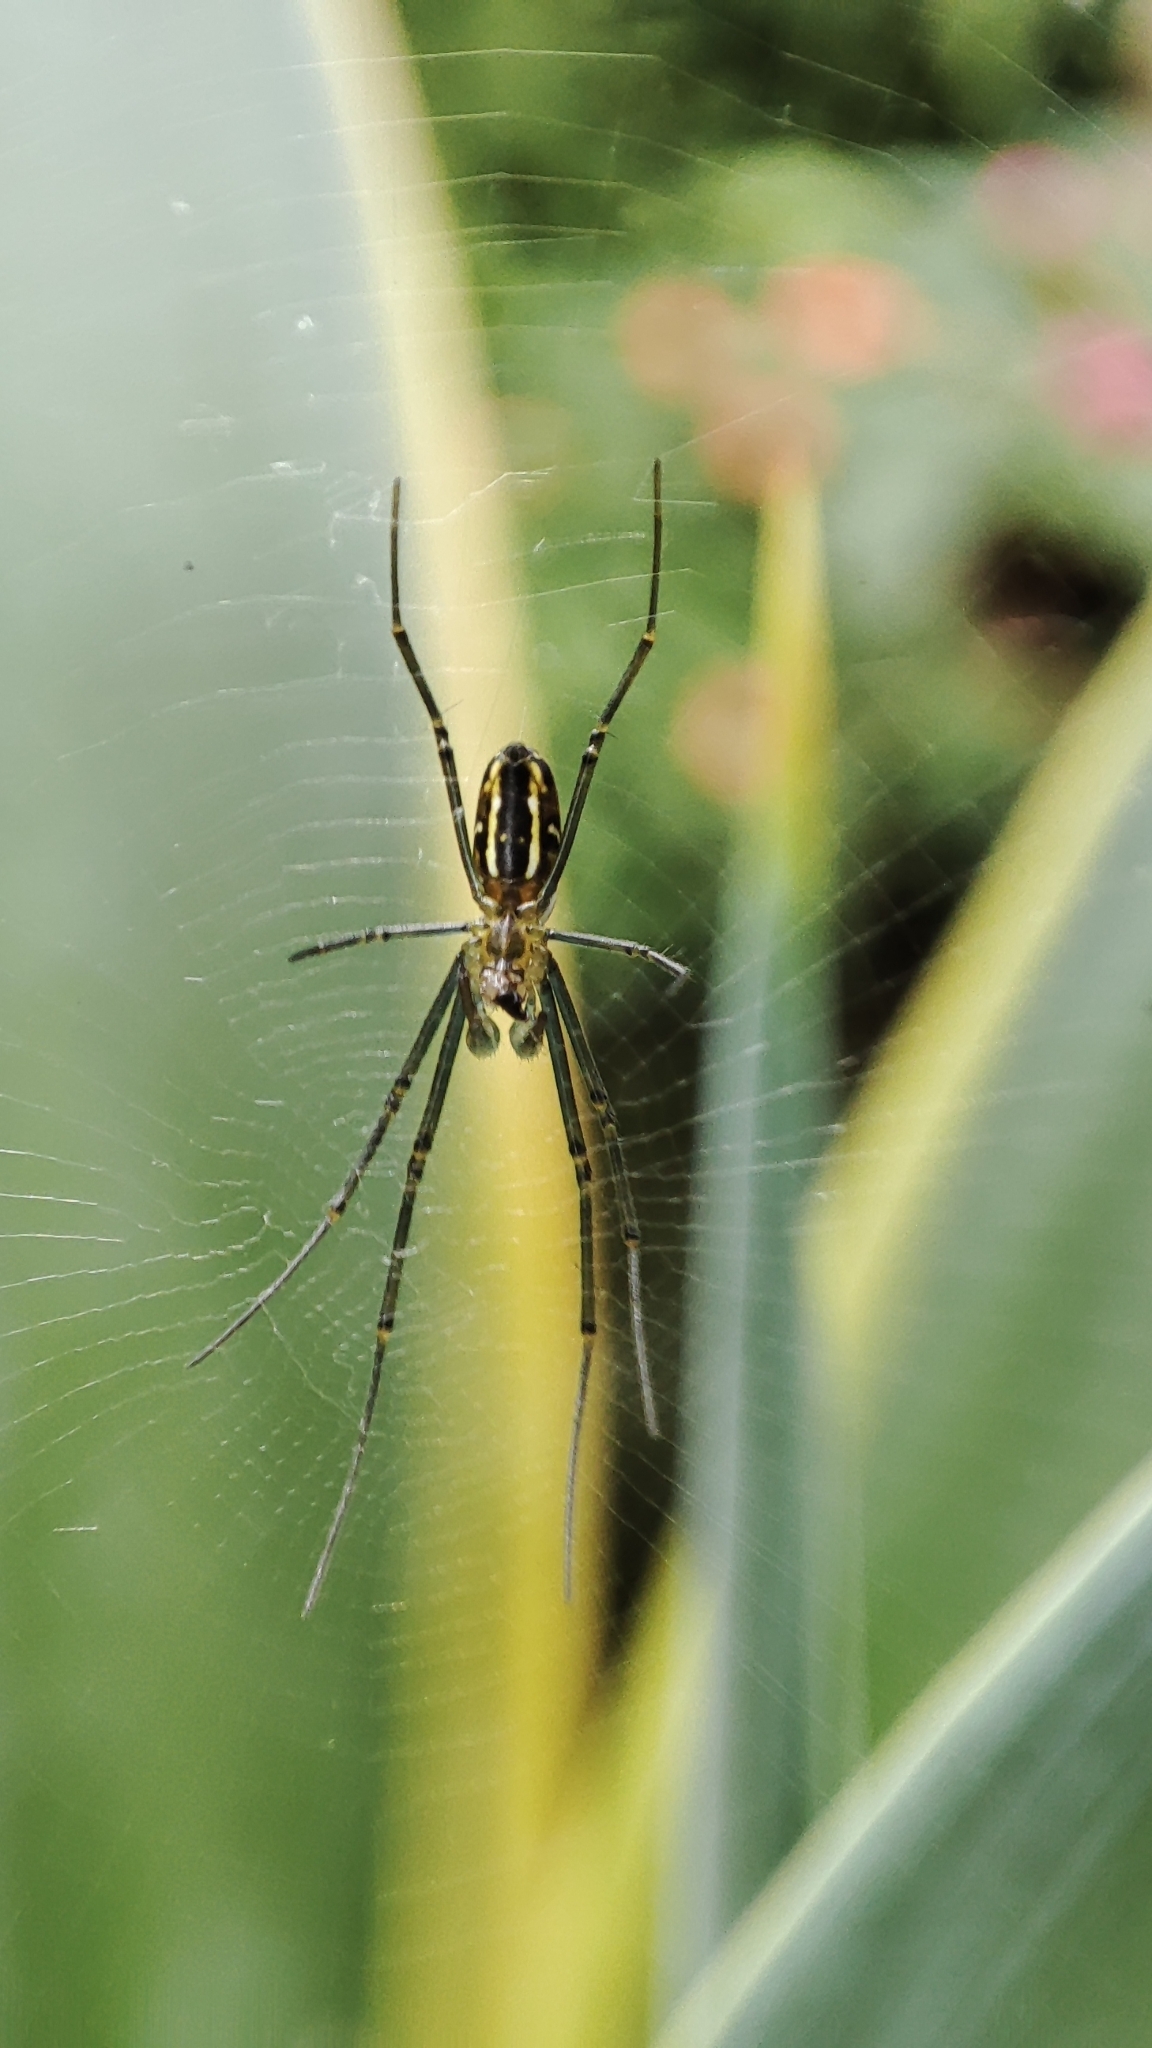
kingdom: Animalia
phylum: Arthropoda
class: Arachnida
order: Araneae
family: Araneidae
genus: Nephila
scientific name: Nephila pilipes
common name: Giant golden orb weaver
